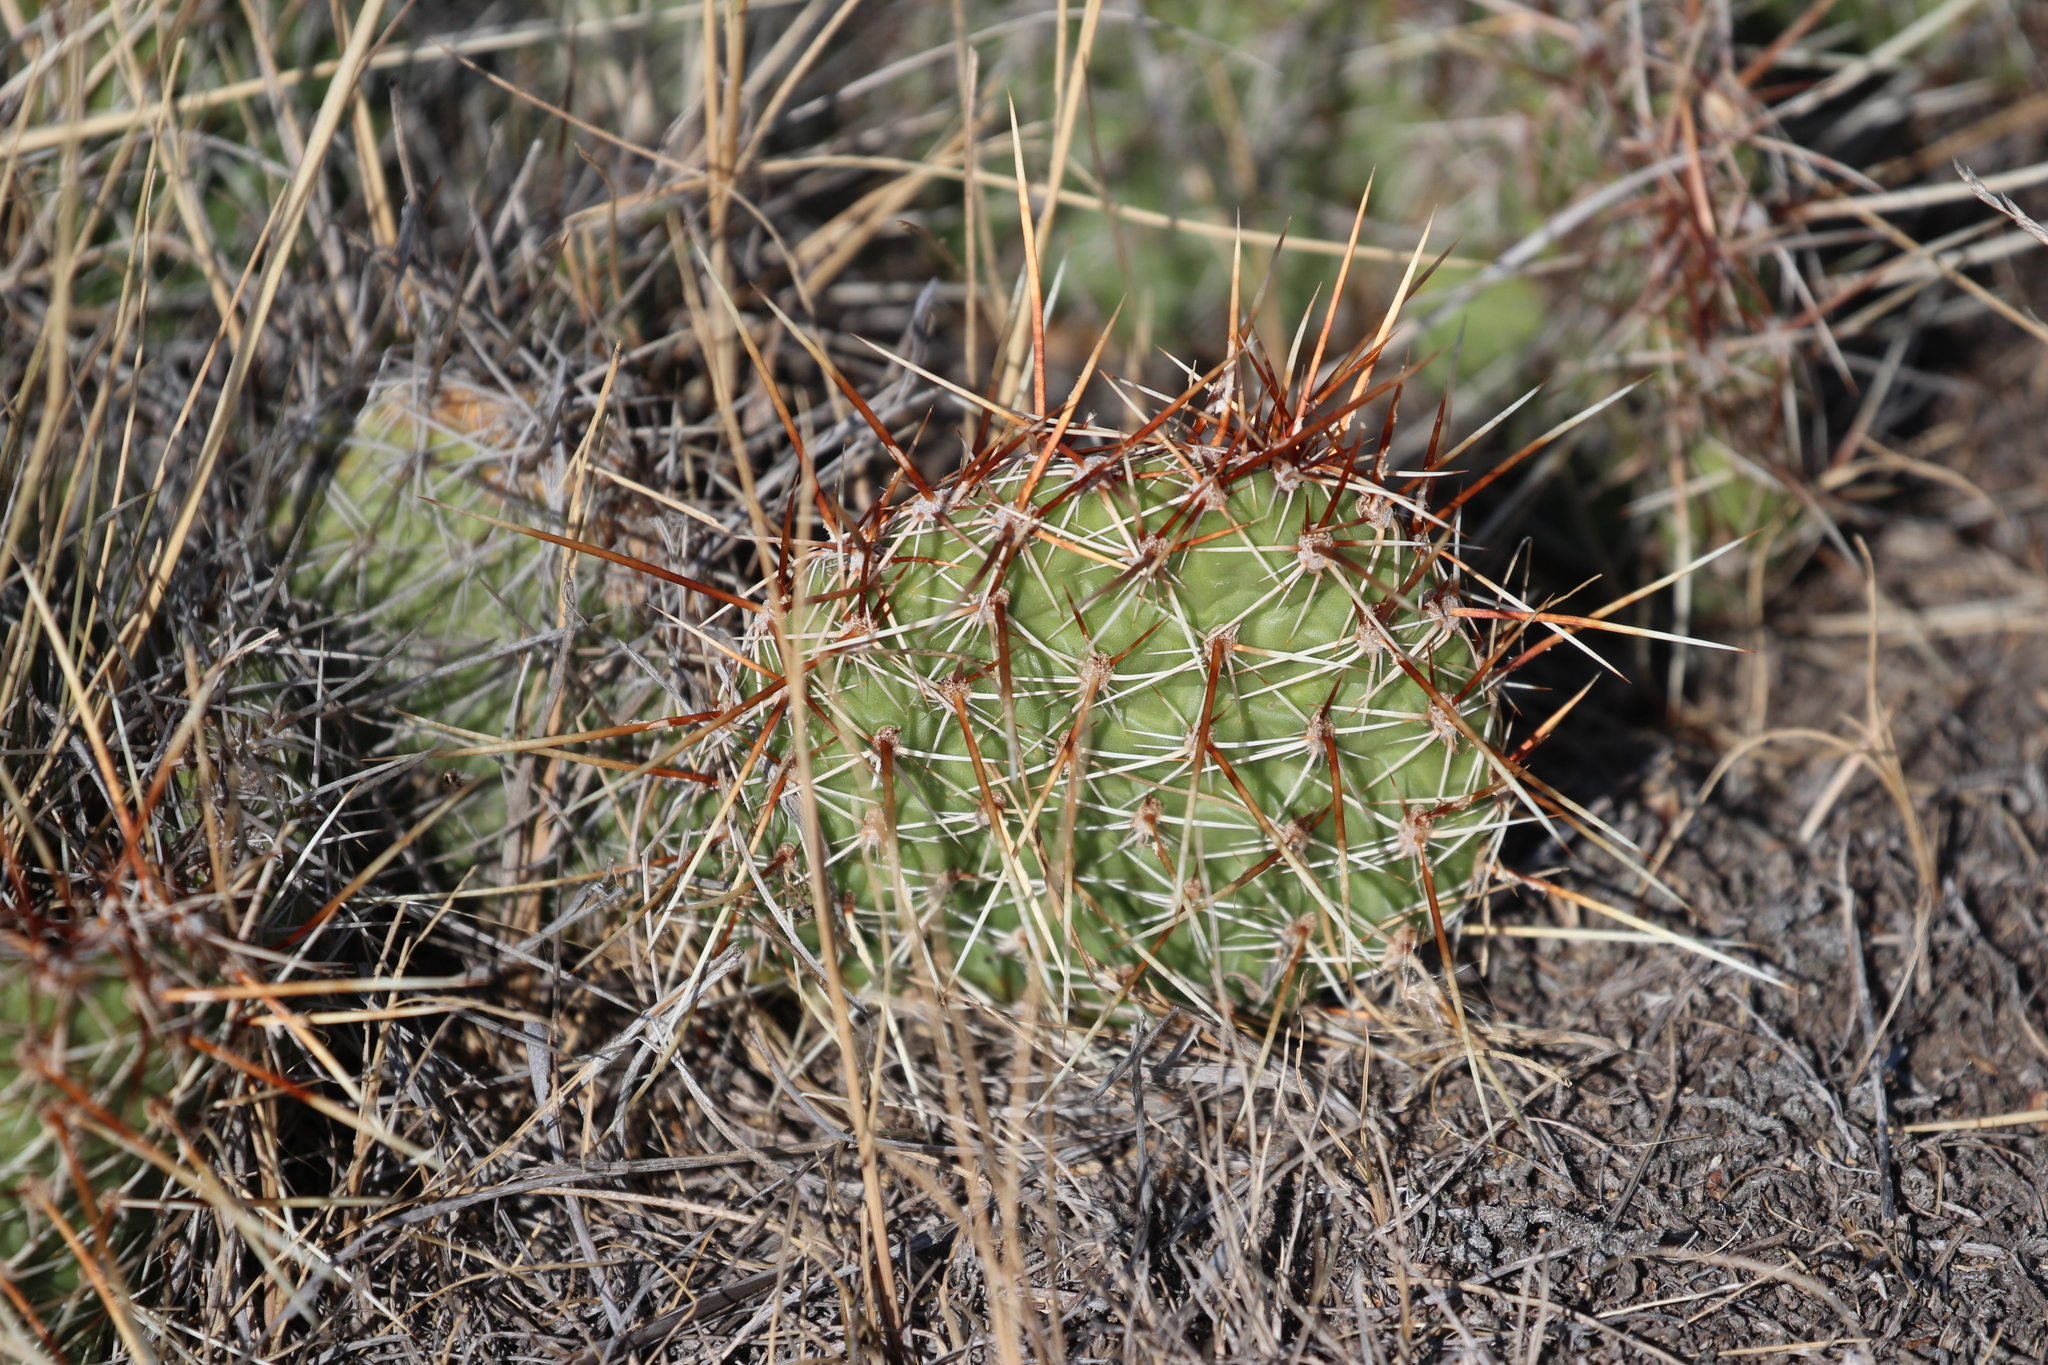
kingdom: Plantae
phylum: Tracheophyta
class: Magnoliopsida
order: Caryophyllales
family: Cactaceae
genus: Opuntia
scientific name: Opuntia polyacantha
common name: Plains prickly-pear
